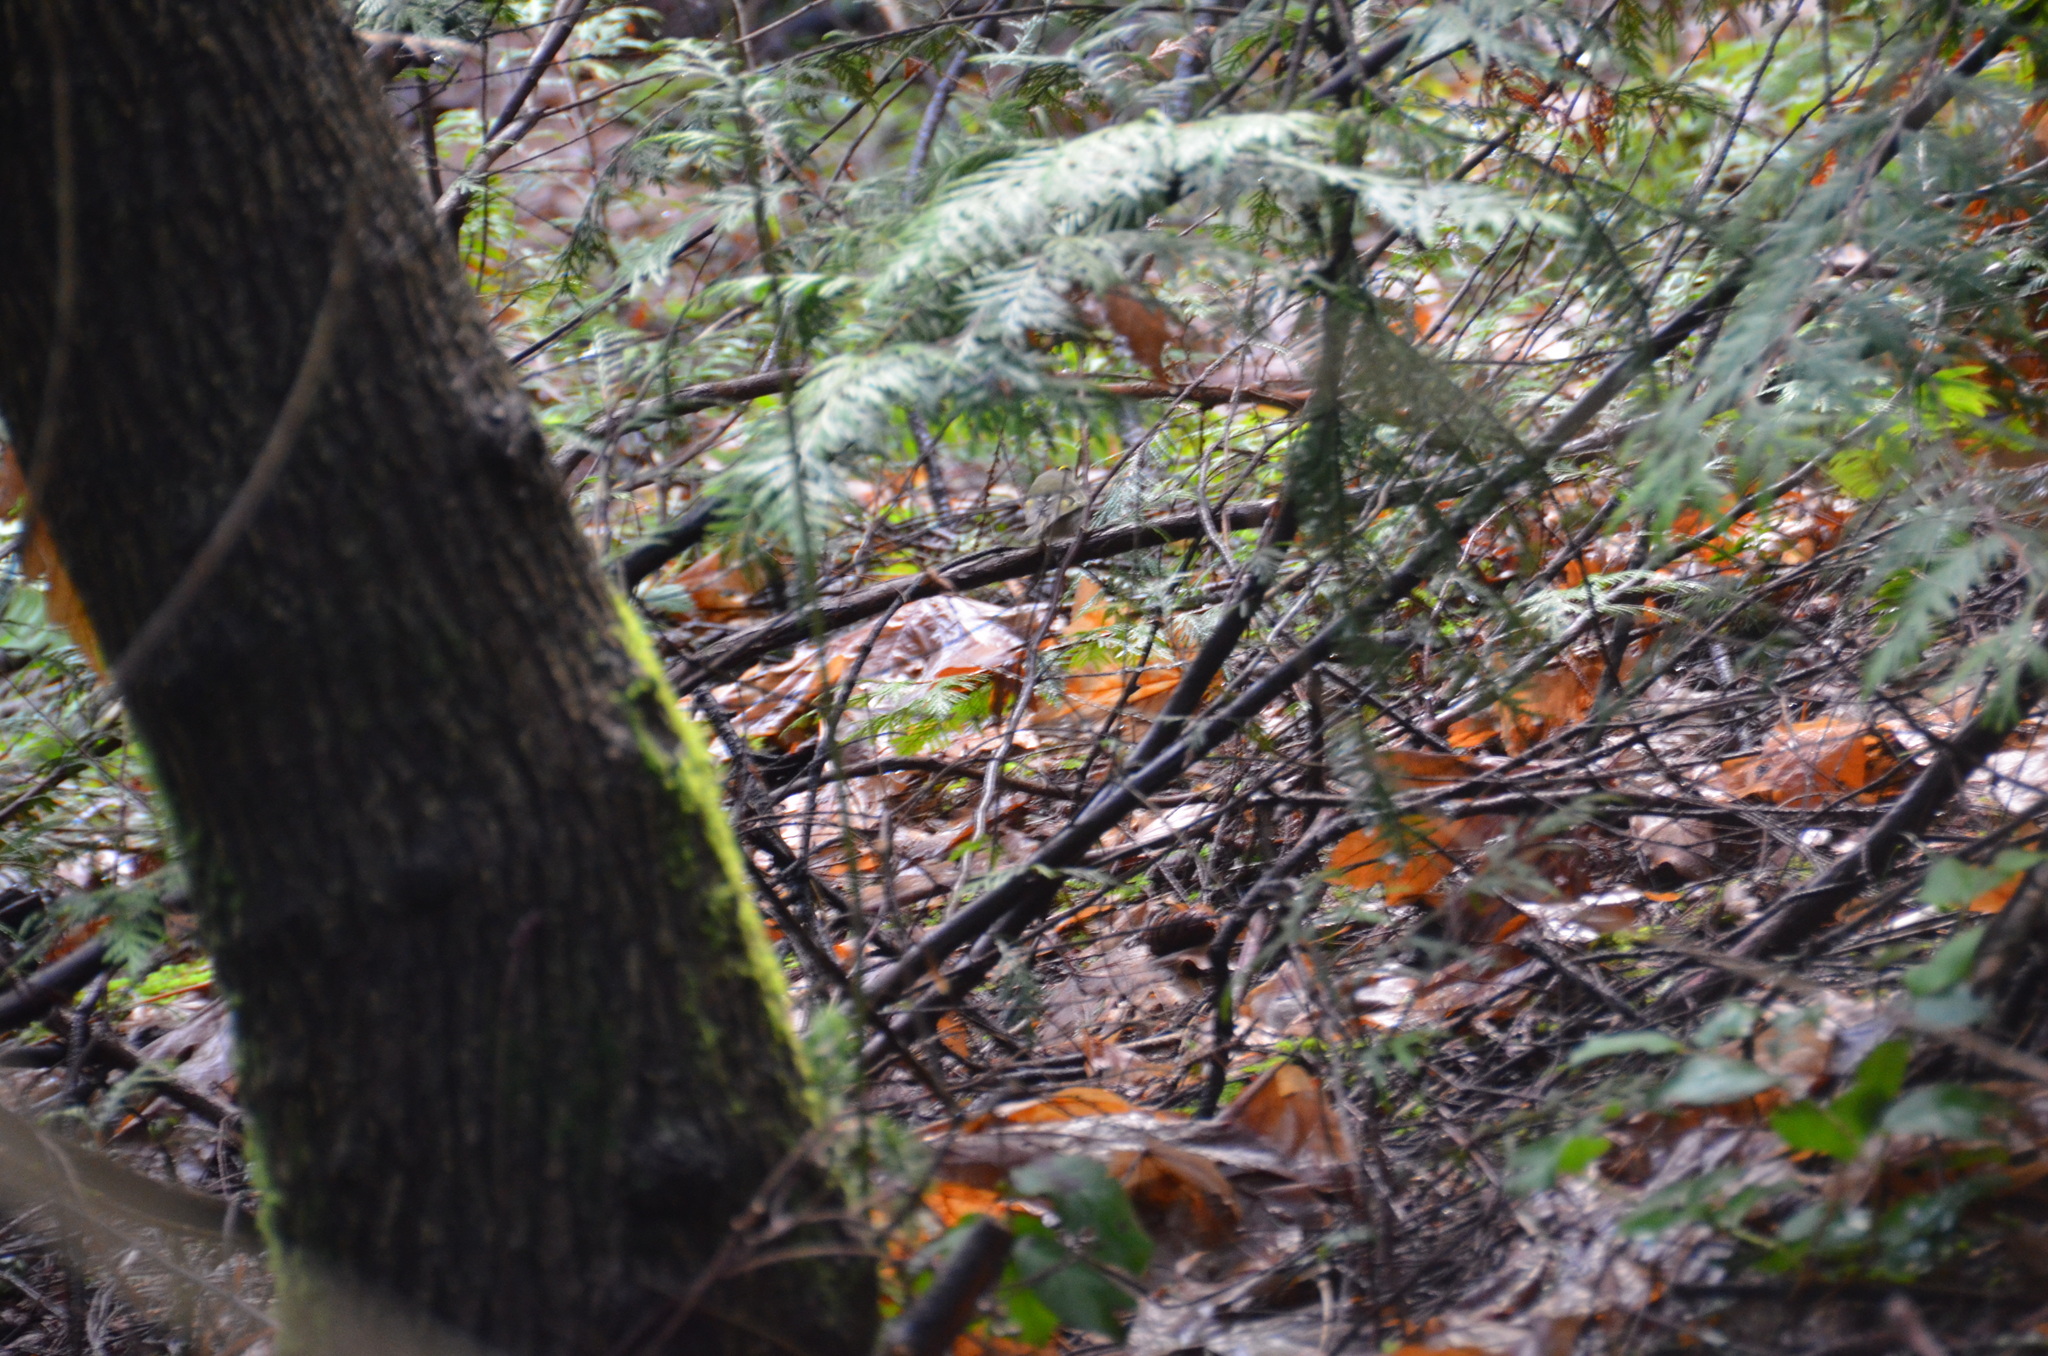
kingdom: Animalia
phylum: Chordata
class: Aves
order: Passeriformes
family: Regulidae
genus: Regulus
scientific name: Regulus satrapa
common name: Golden-crowned kinglet
